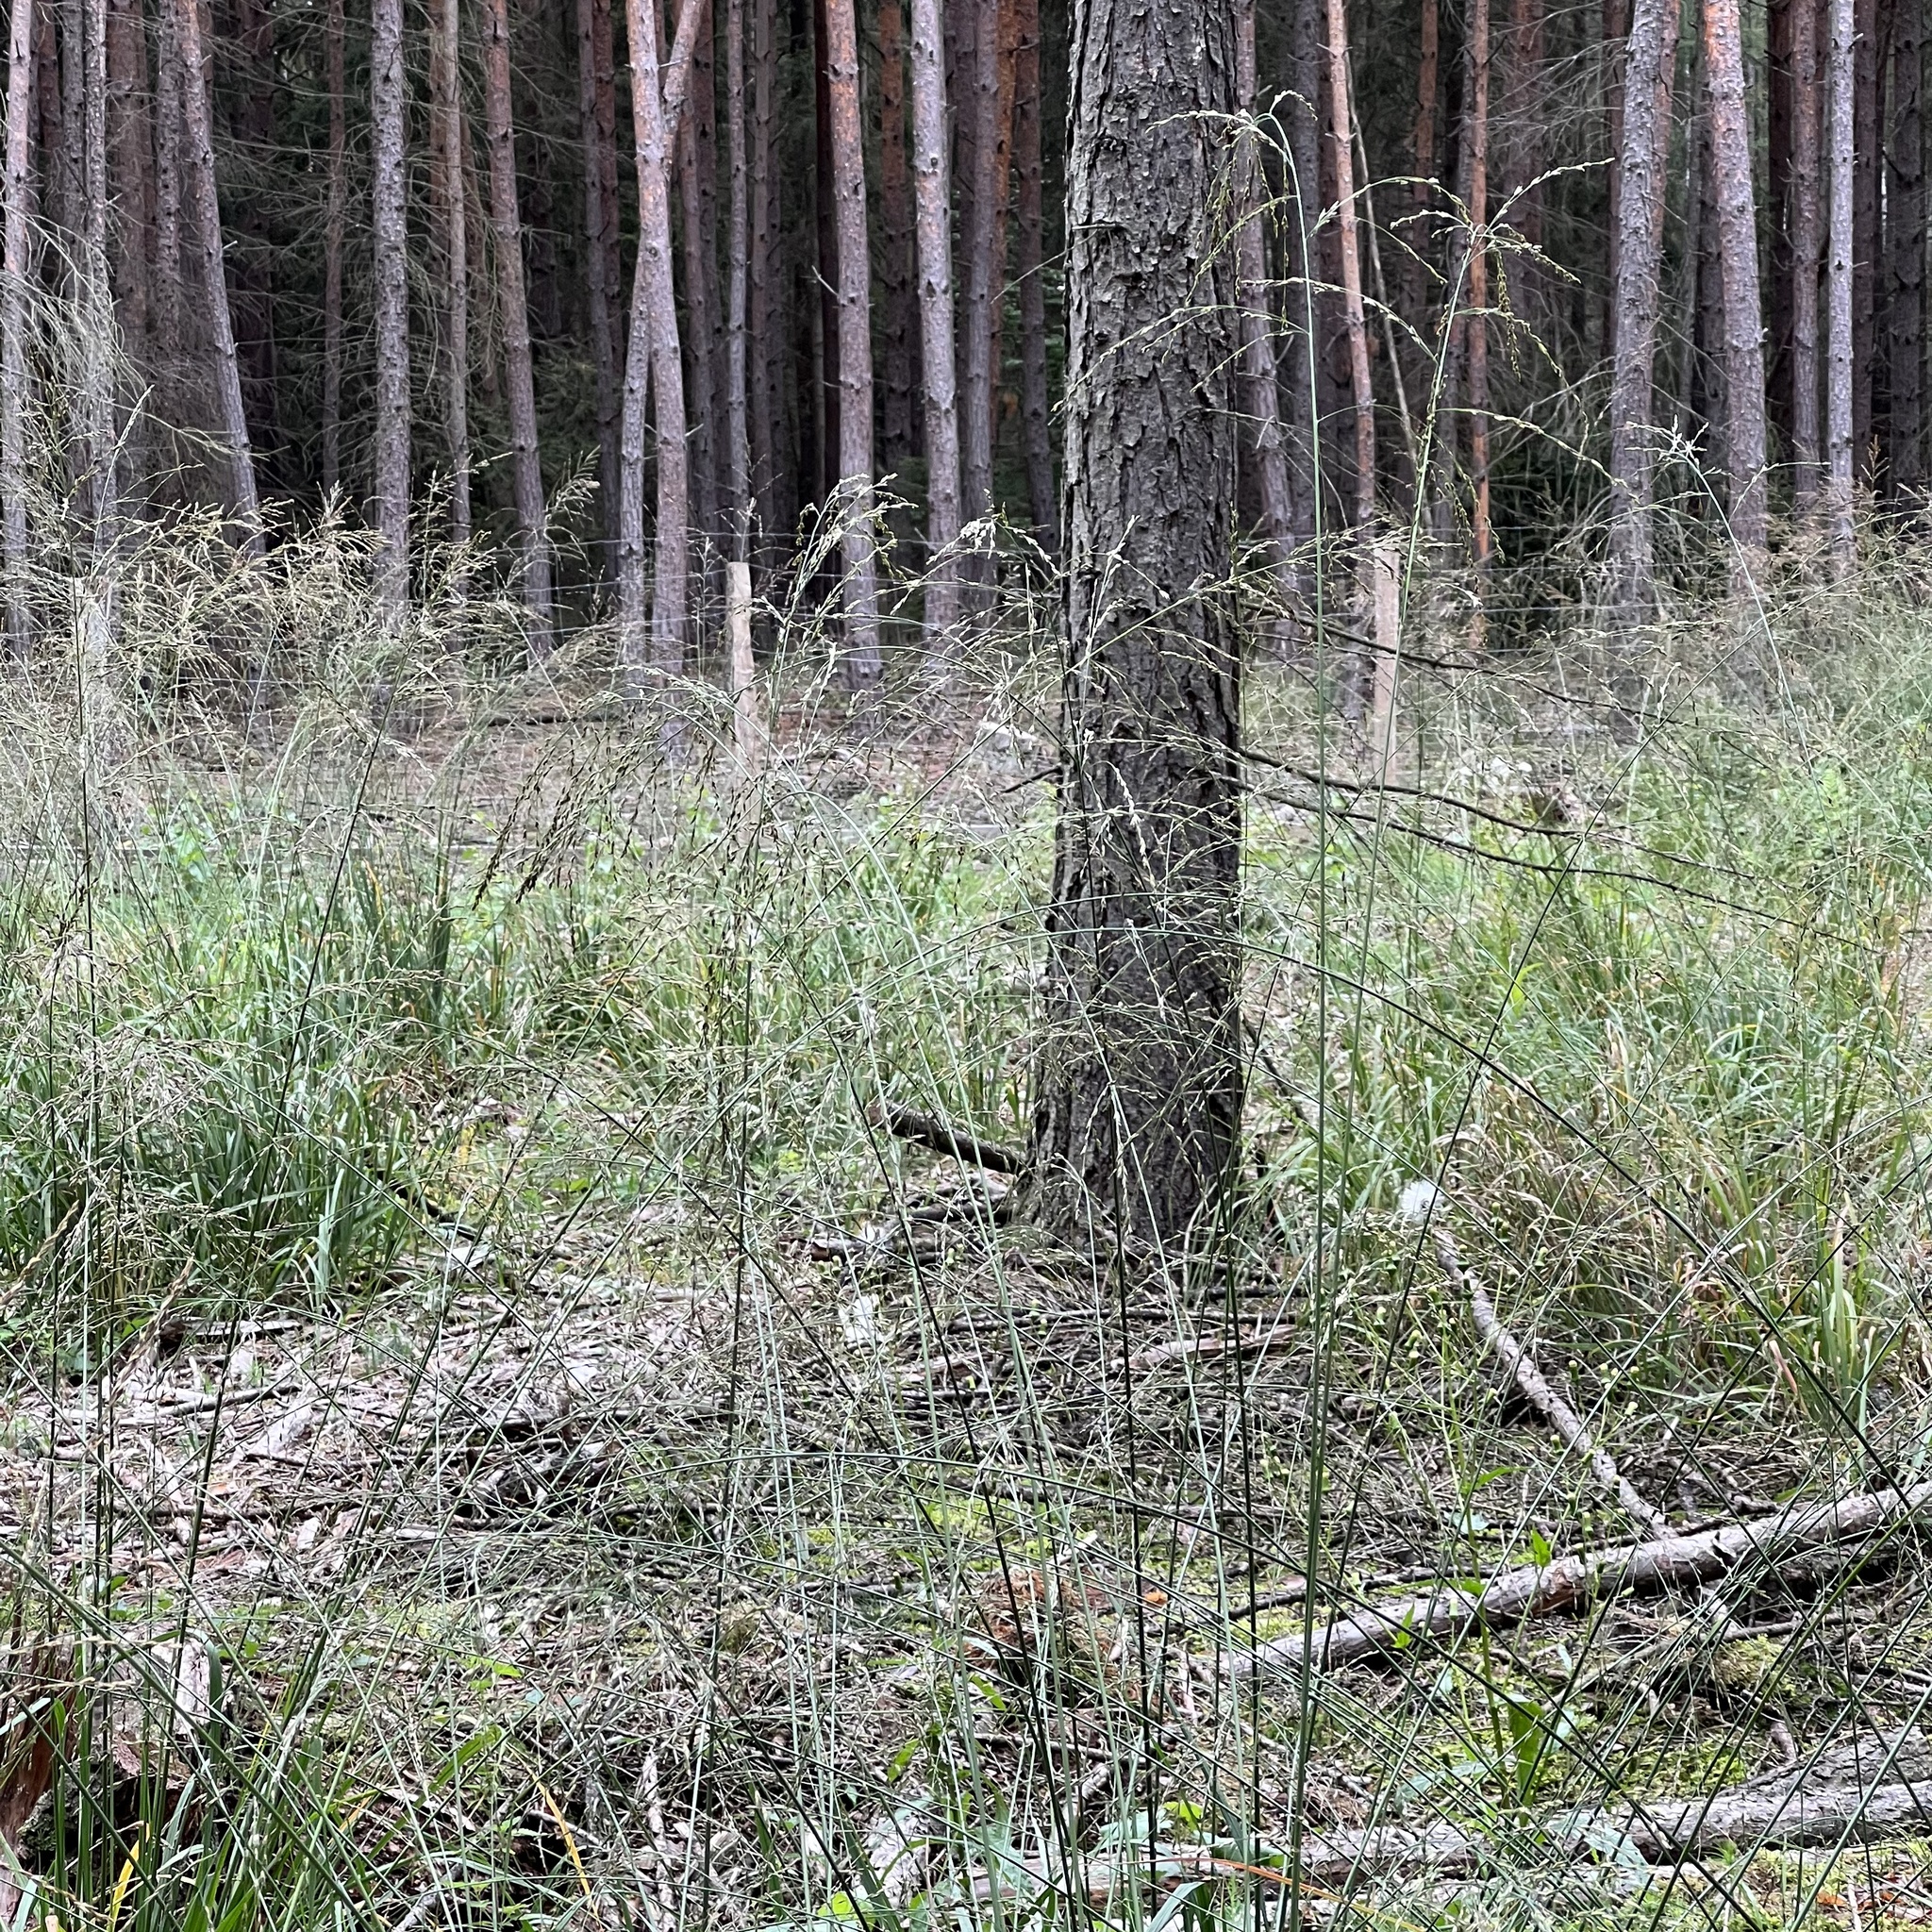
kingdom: Plantae
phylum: Tracheophyta
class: Liliopsida
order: Poales
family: Poaceae
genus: Molinia
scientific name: Molinia caerulea
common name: Purple moor-grass
